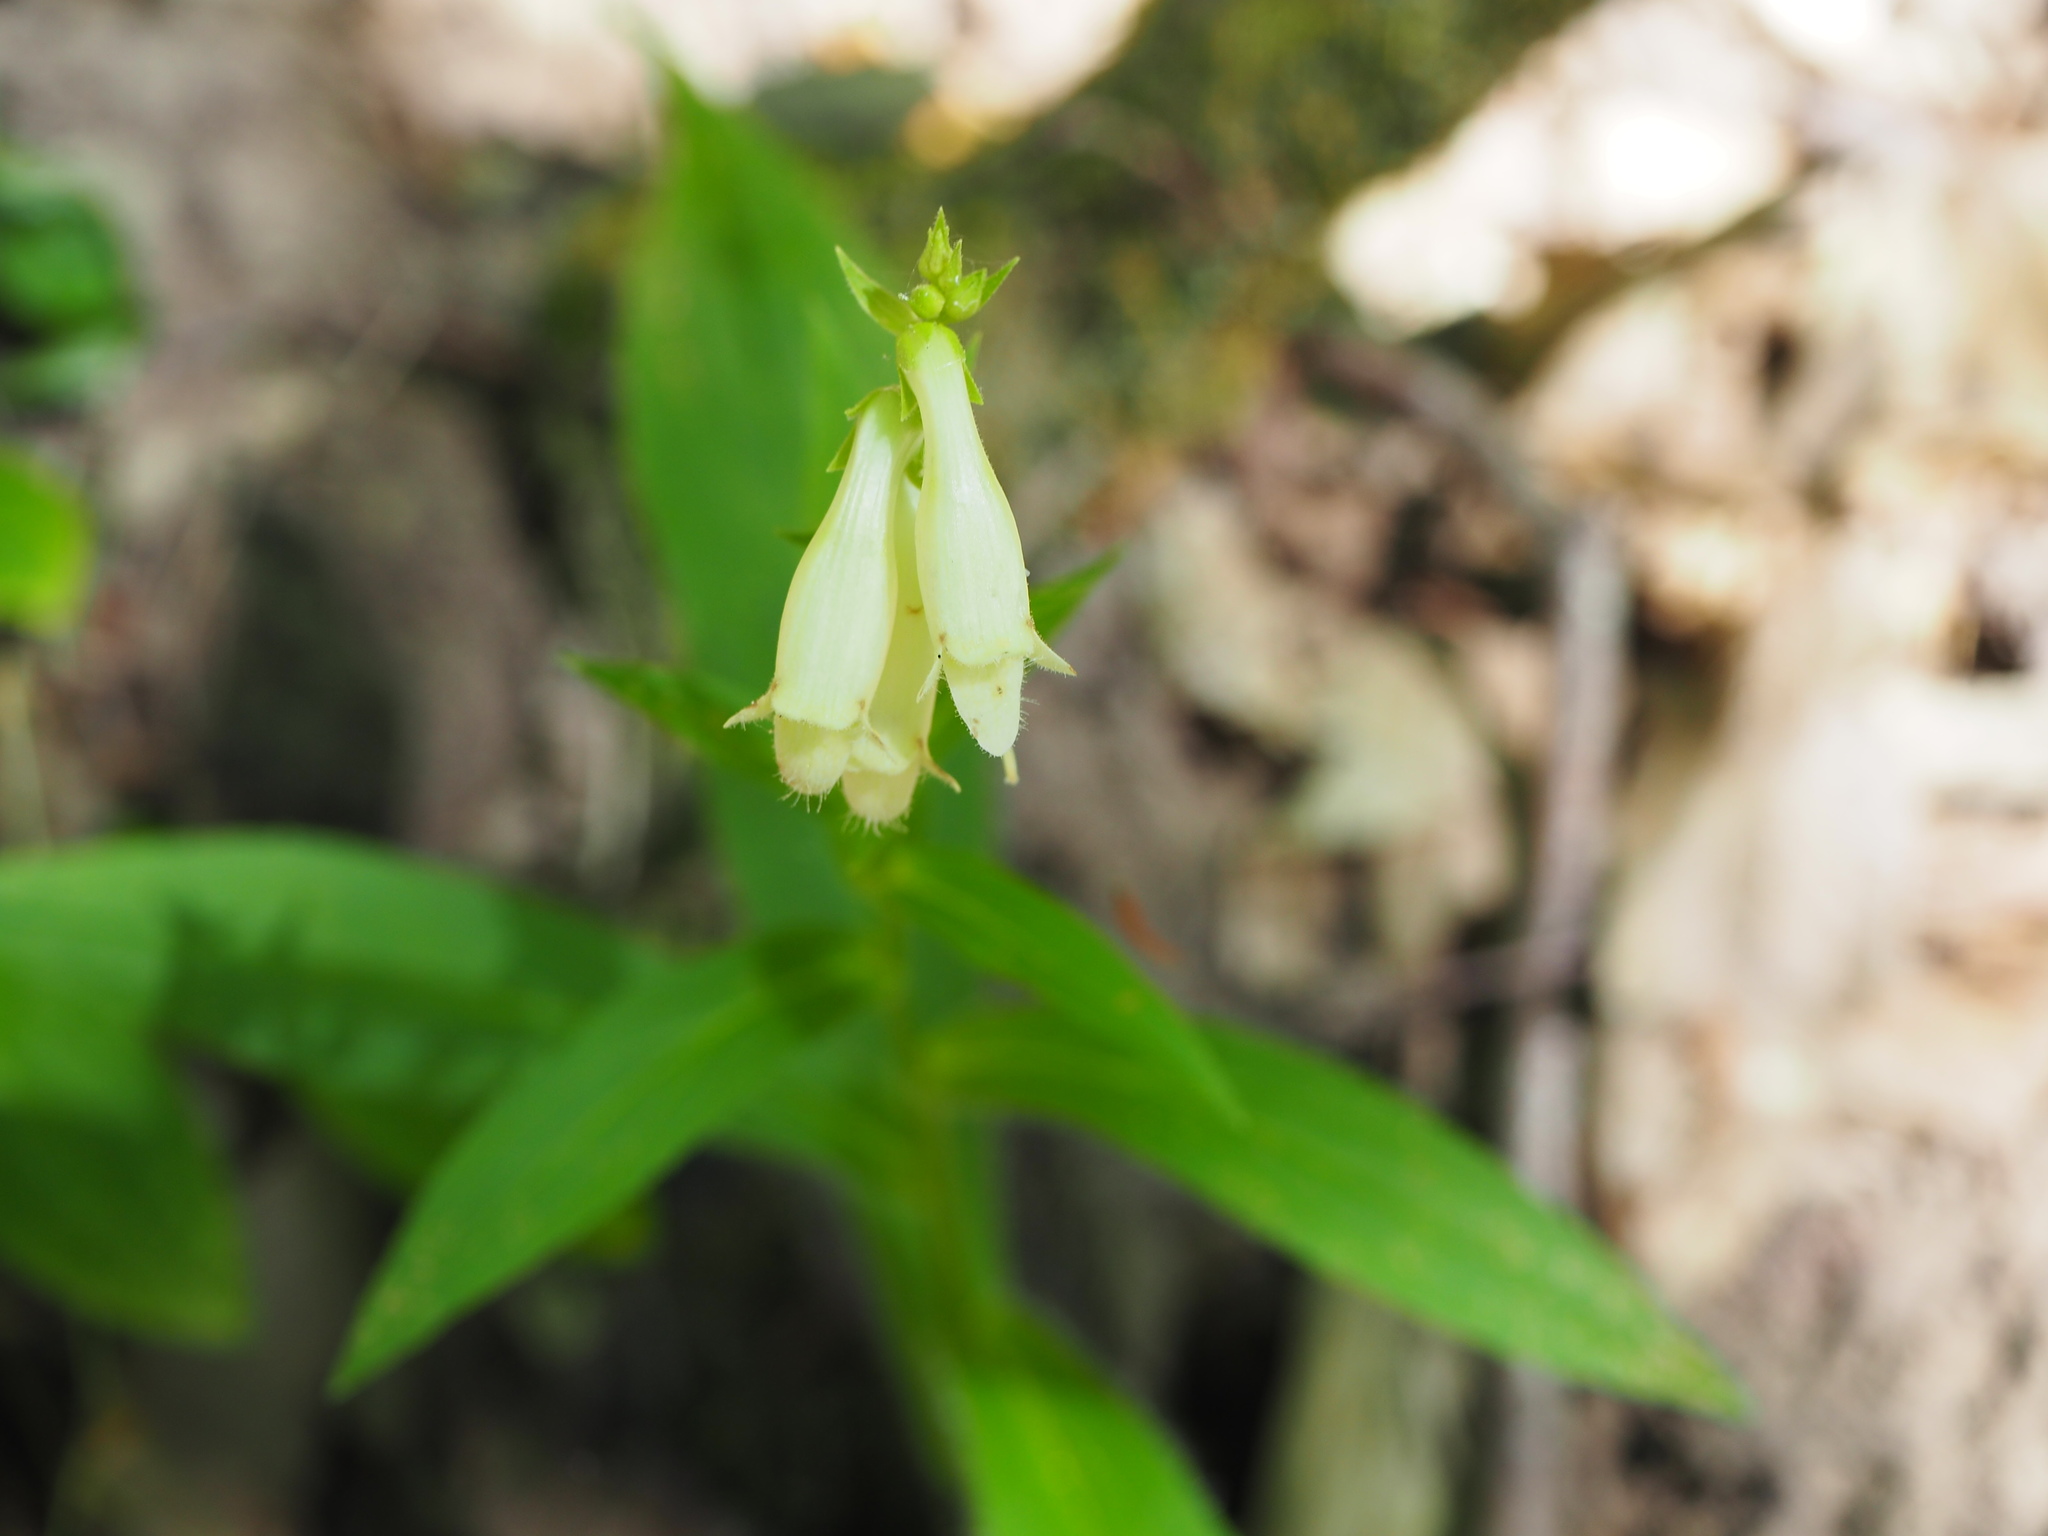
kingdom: Plantae
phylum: Tracheophyta
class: Magnoliopsida
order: Lamiales
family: Plantaginaceae
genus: Digitalis
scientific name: Digitalis lutea
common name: Straw foxglove
